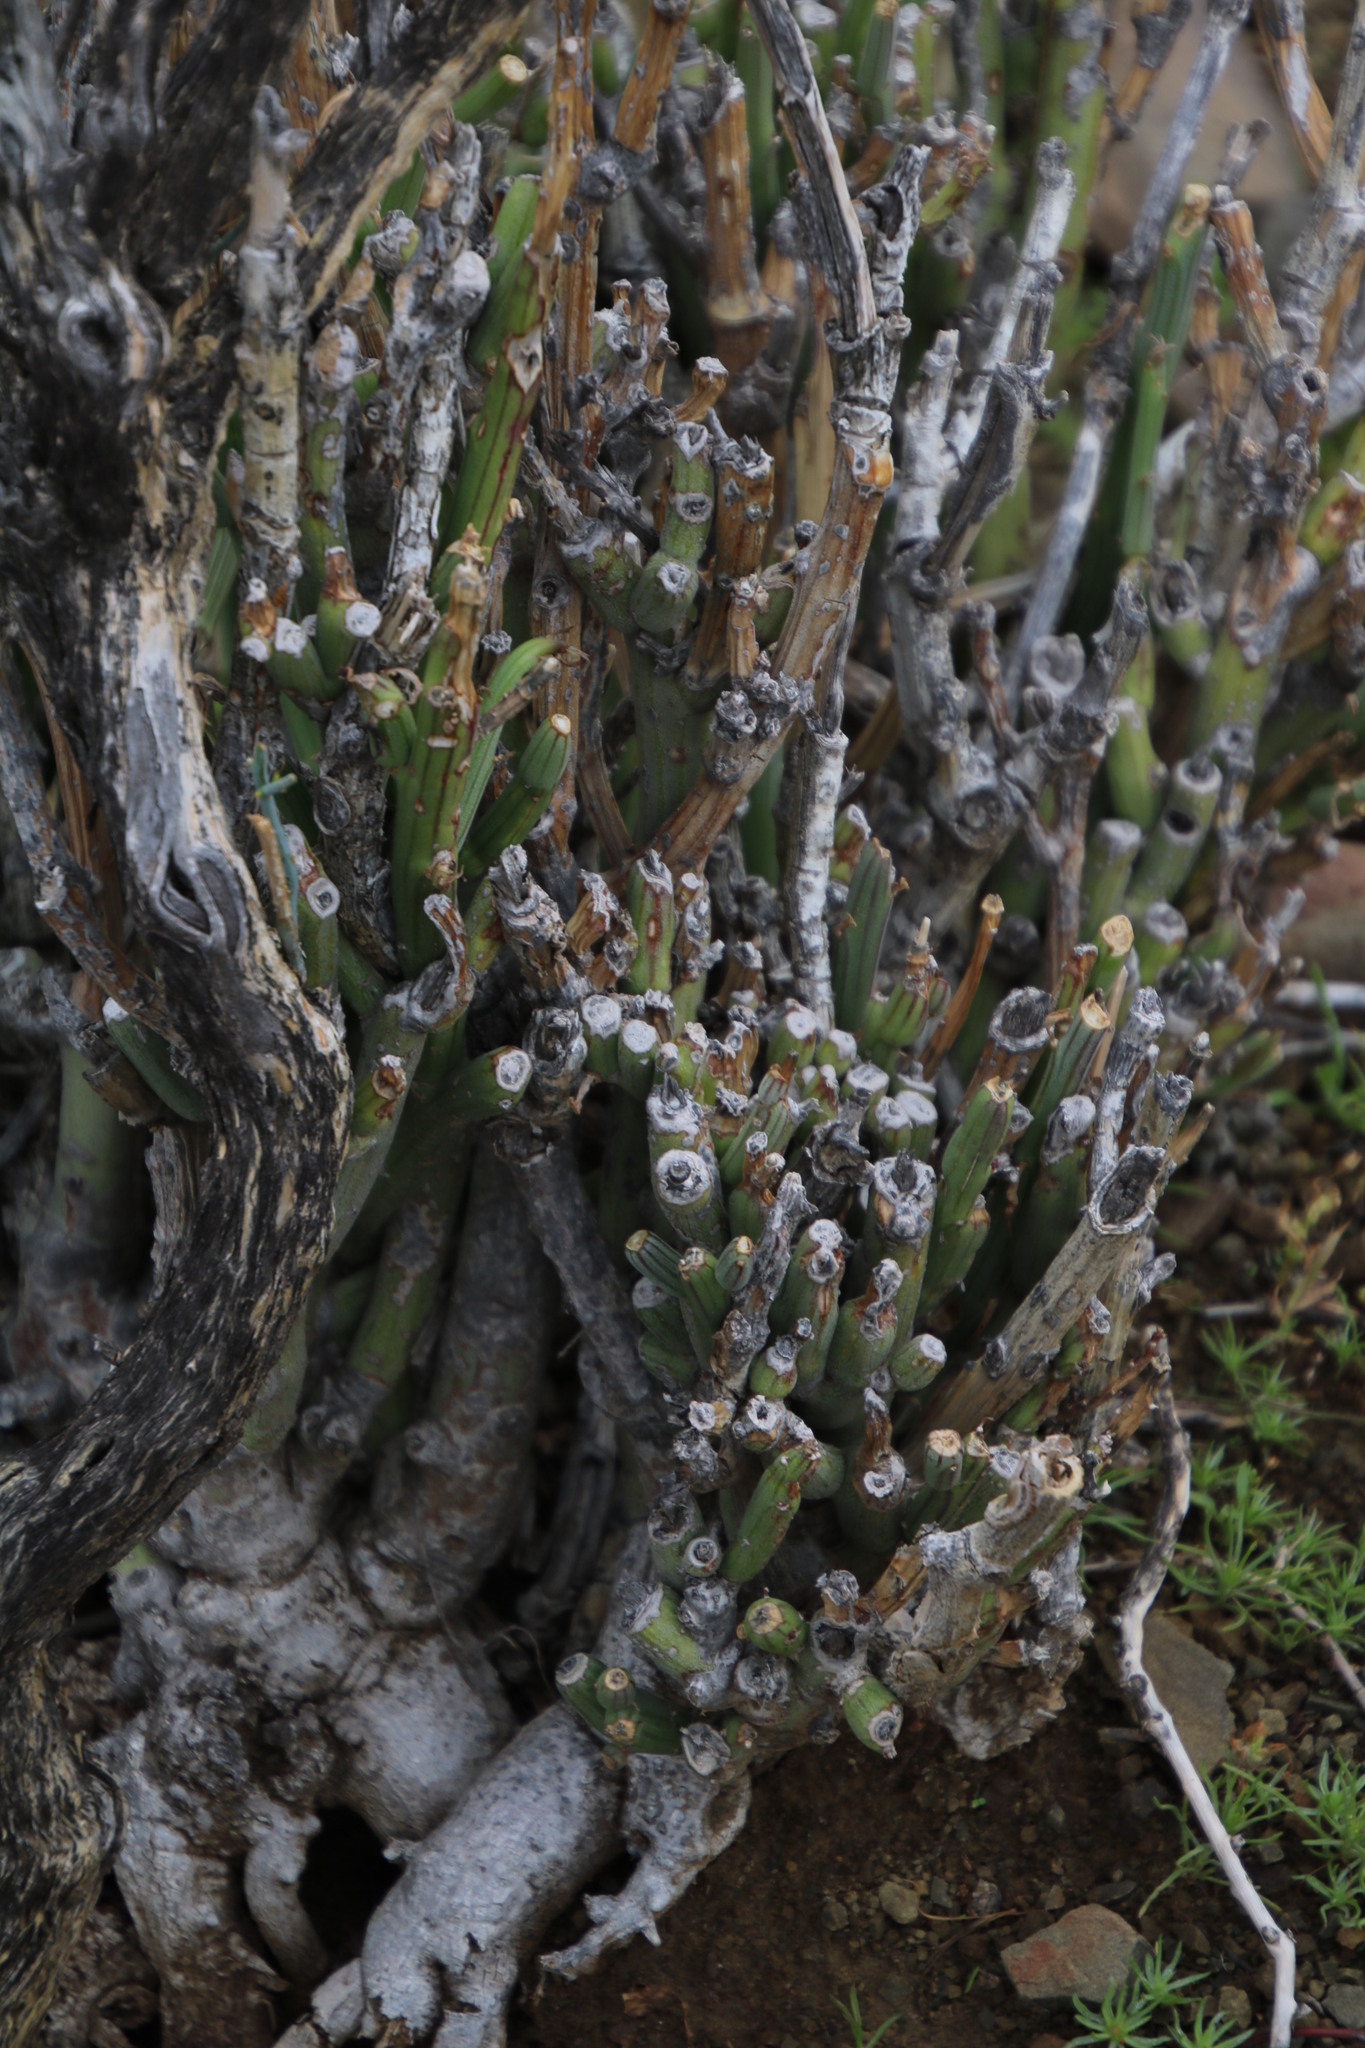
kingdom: Plantae
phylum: Tracheophyta
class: Magnoliopsida
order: Asterales
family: Asteraceae
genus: Curio
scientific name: Curio avasimontanus
